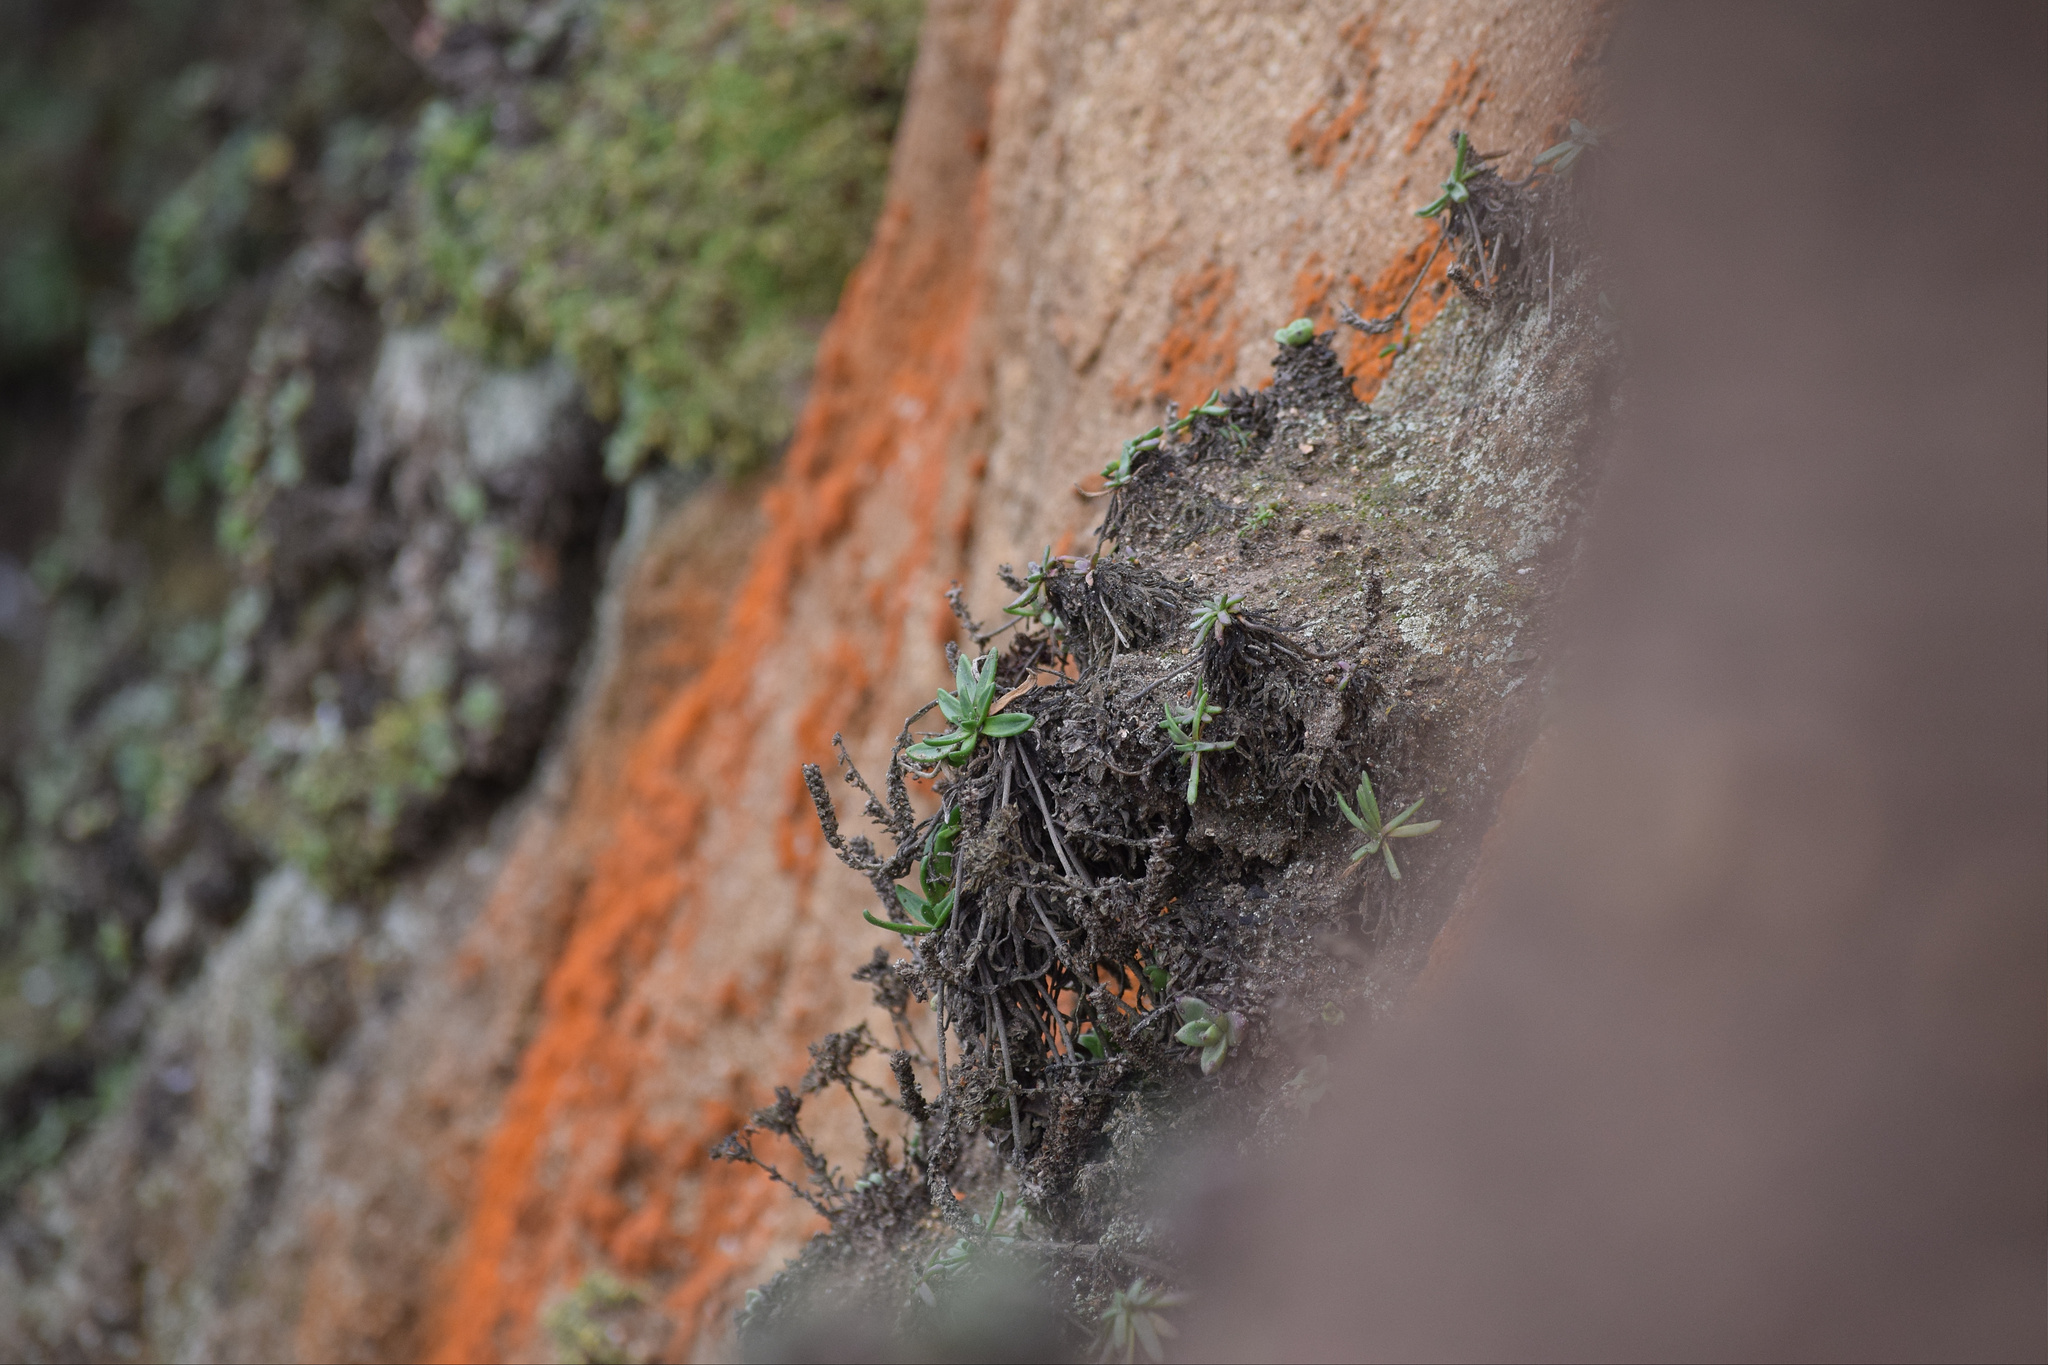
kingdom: Plantae
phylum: Tracheophyta
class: Magnoliopsida
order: Saxifragales
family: Crassulaceae
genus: Dudleya
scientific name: Dudleya farinosa
